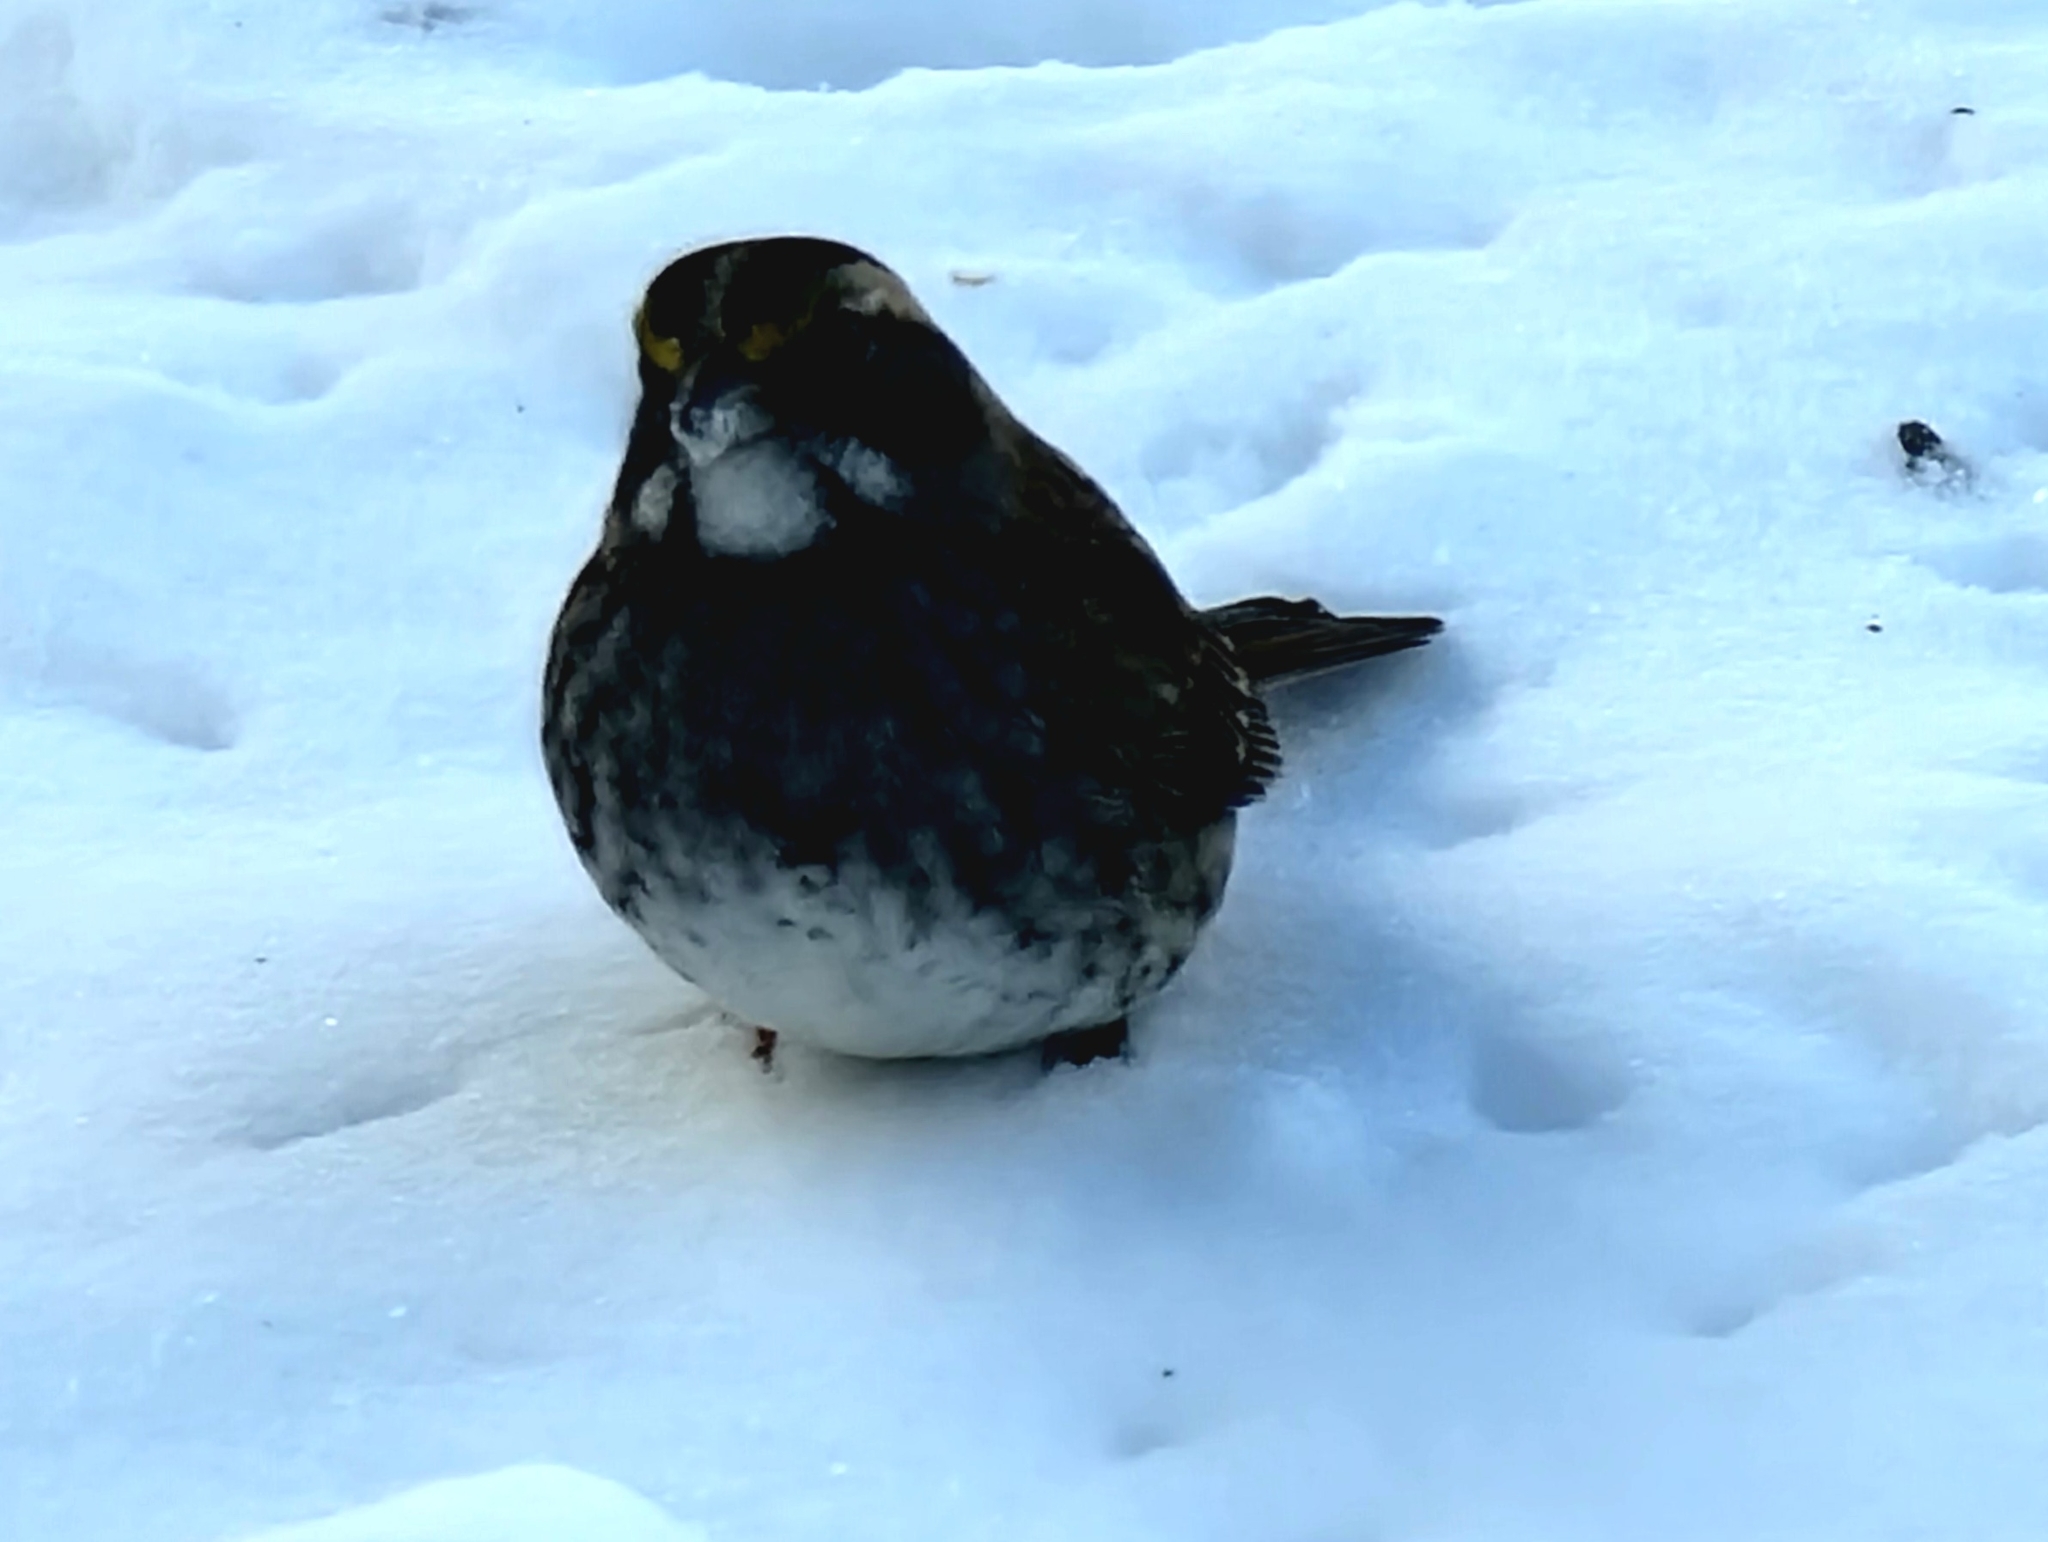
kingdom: Animalia
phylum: Chordata
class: Aves
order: Passeriformes
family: Passerellidae
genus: Zonotrichia
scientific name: Zonotrichia albicollis
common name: White-throated sparrow
